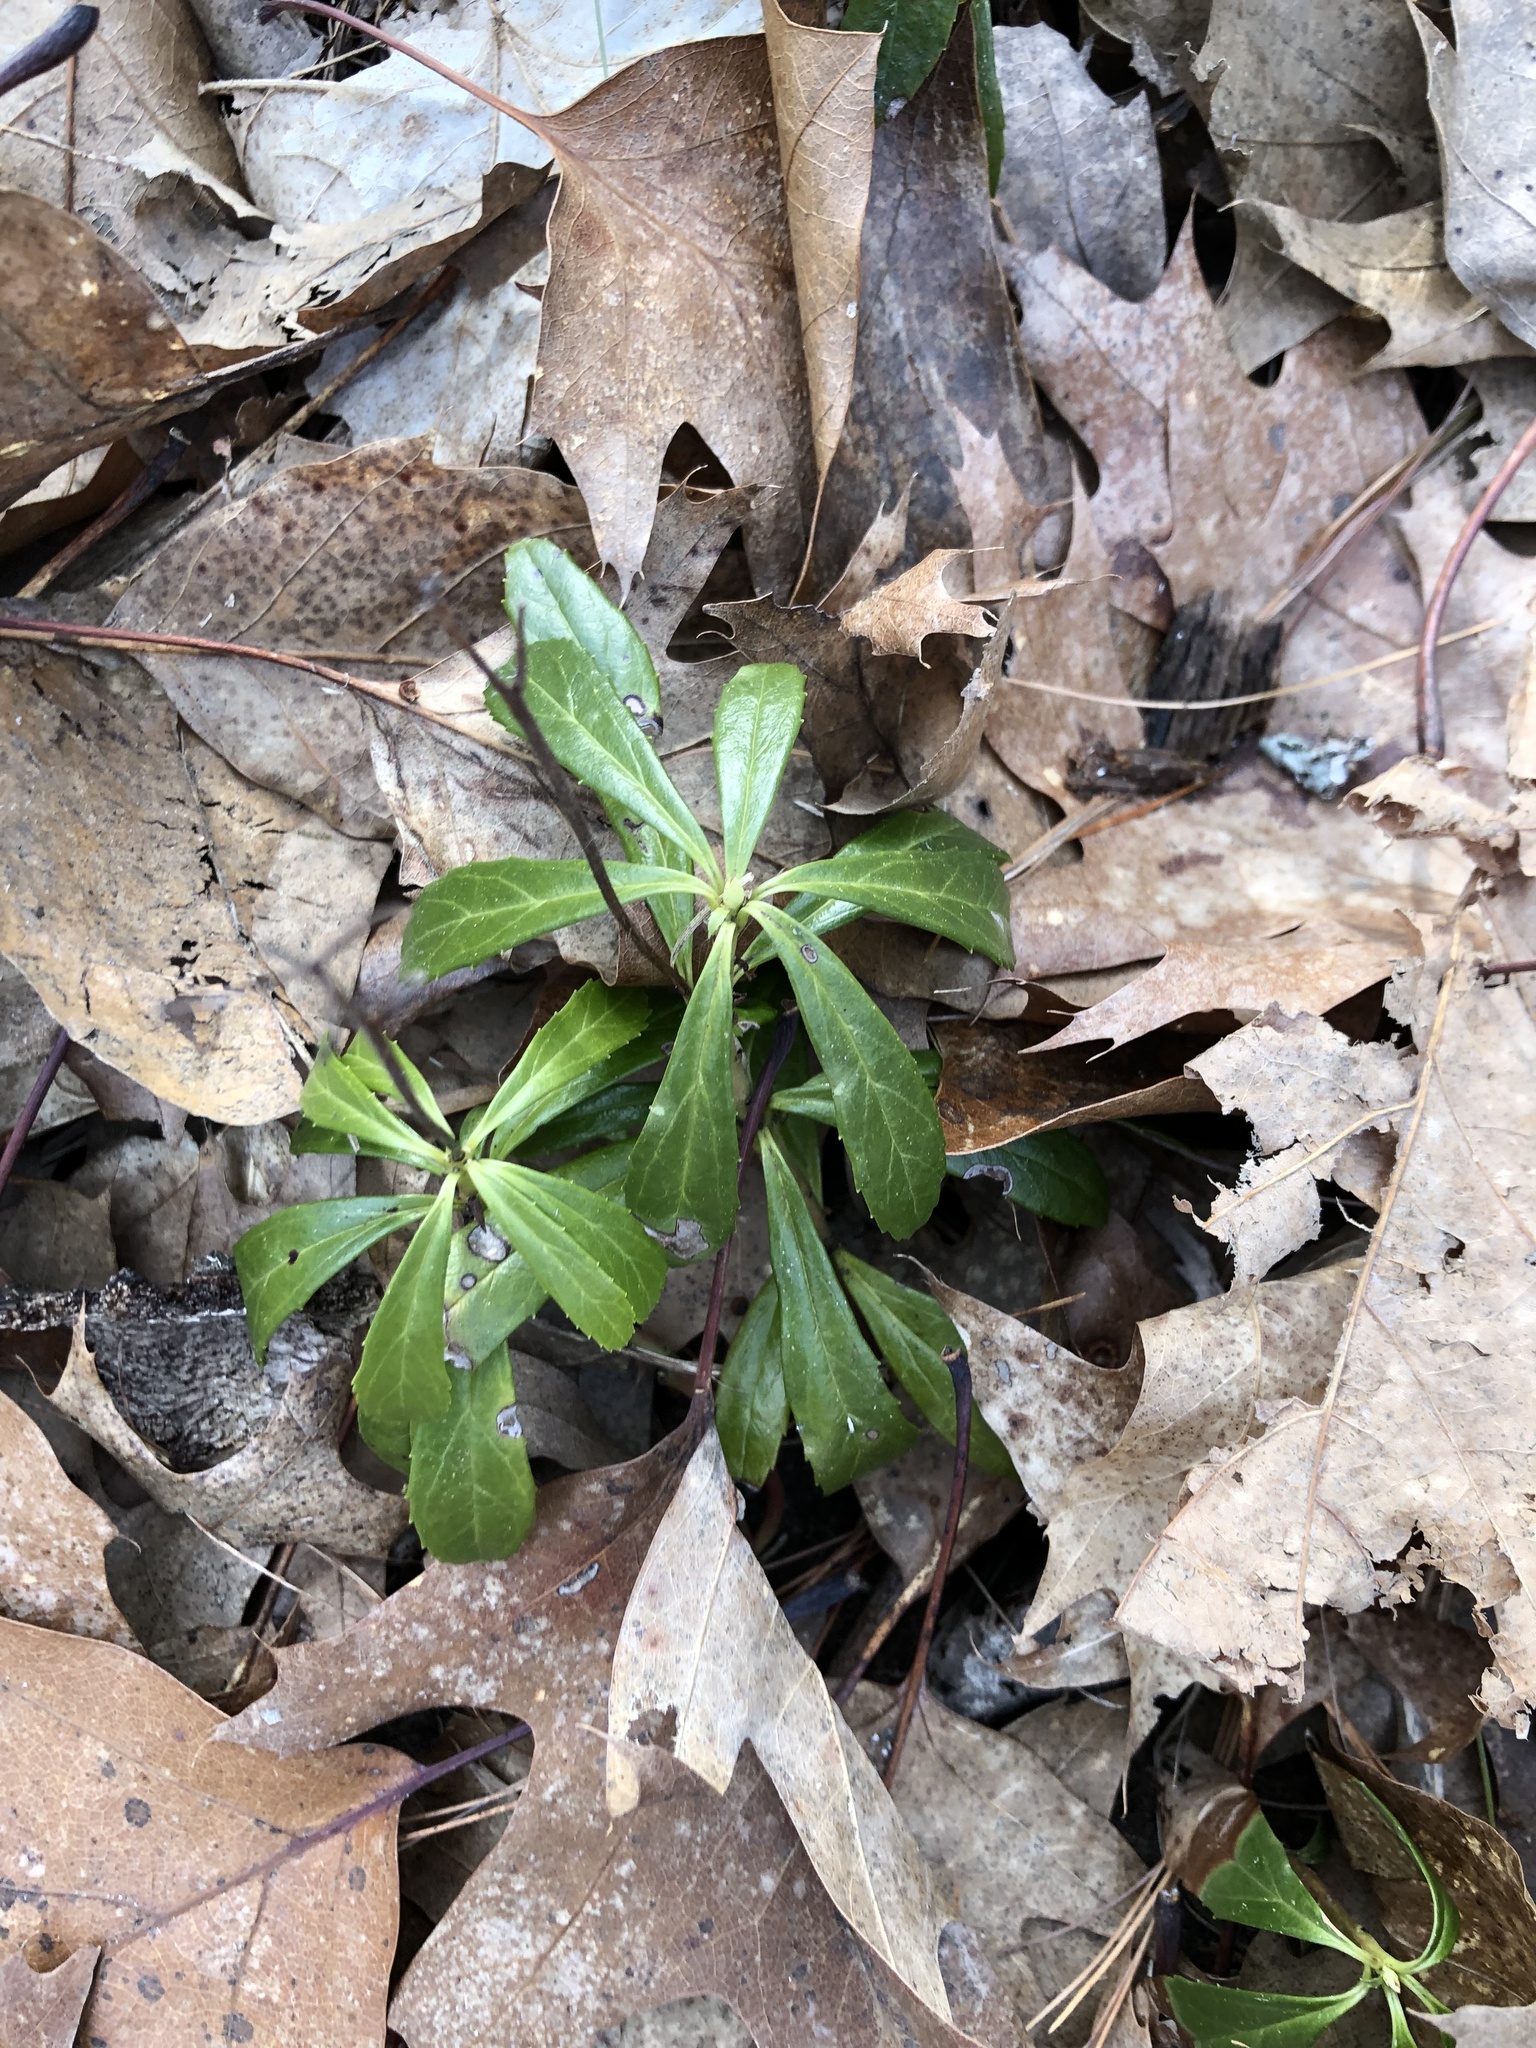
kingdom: Plantae
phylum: Tracheophyta
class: Magnoliopsida
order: Ericales
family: Ericaceae
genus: Chimaphila
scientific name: Chimaphila umbellata
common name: Pipsissewa
